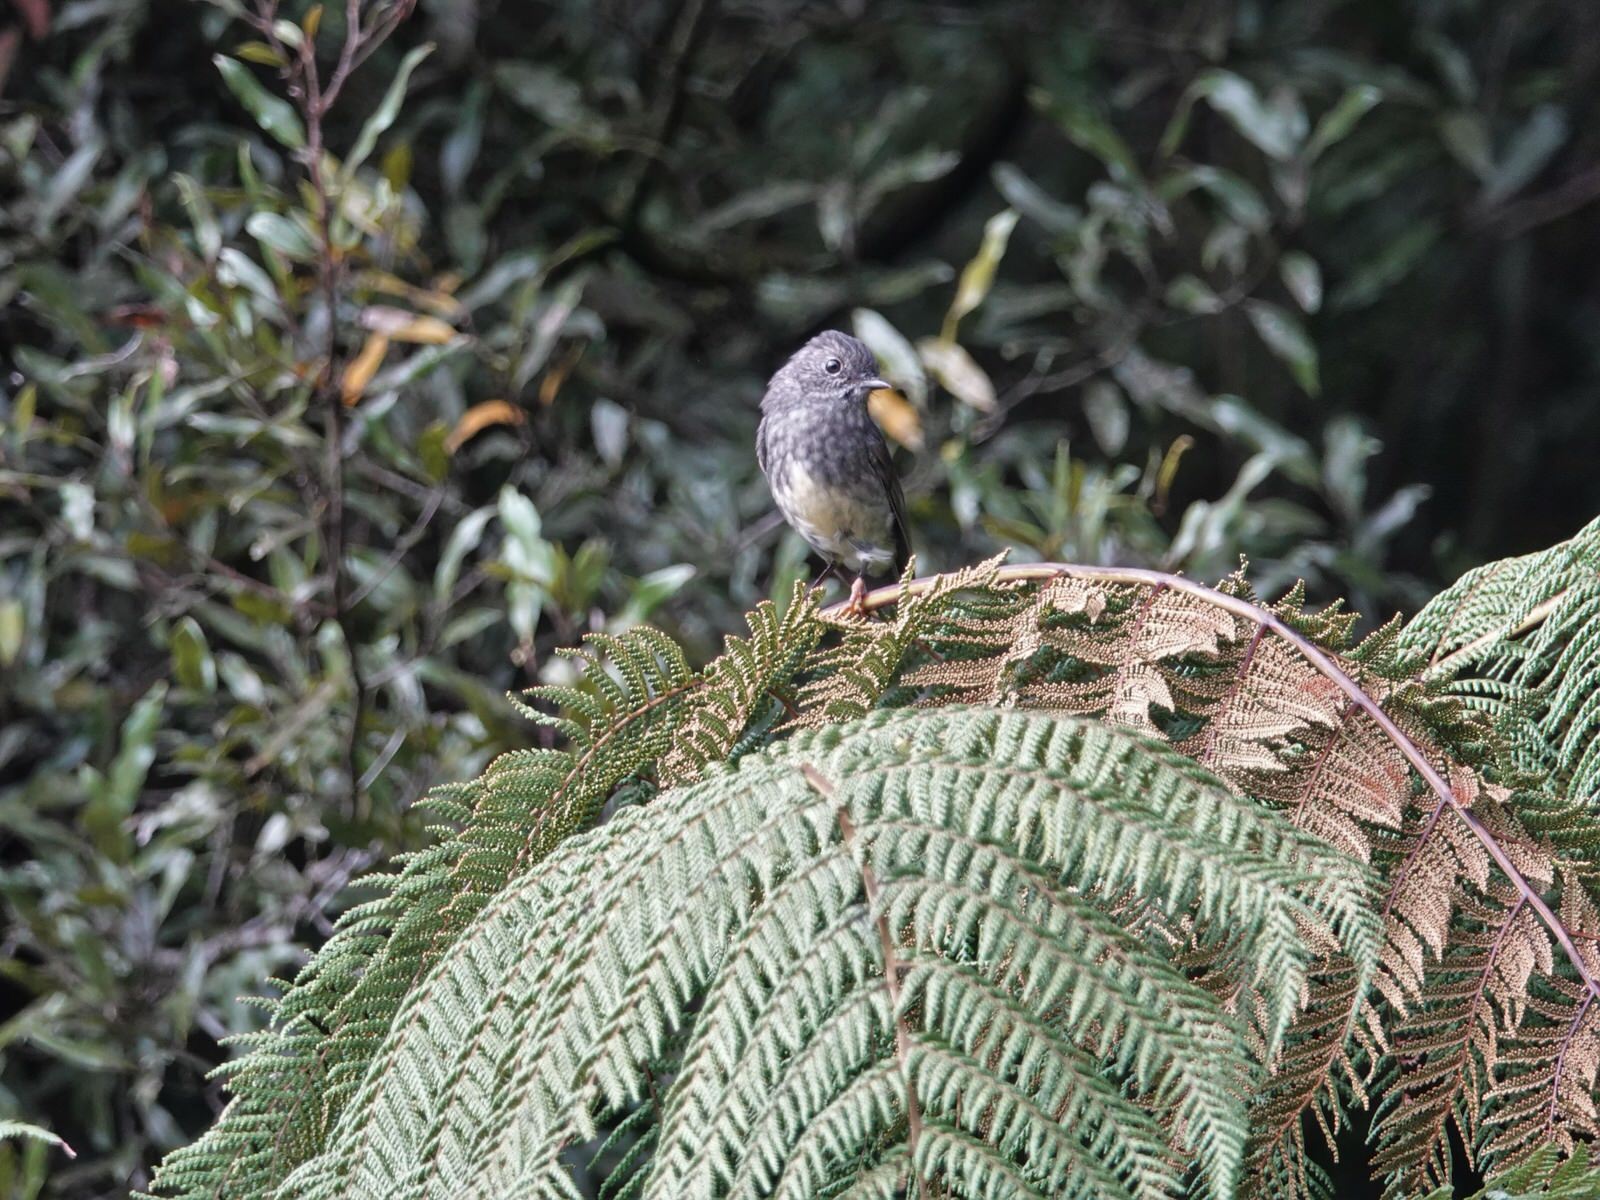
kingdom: Animalia
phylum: Chordata
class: Aves
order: Passeriformes
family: Petroicidae
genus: Petroica
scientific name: Petroica australis
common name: New zealand robin
